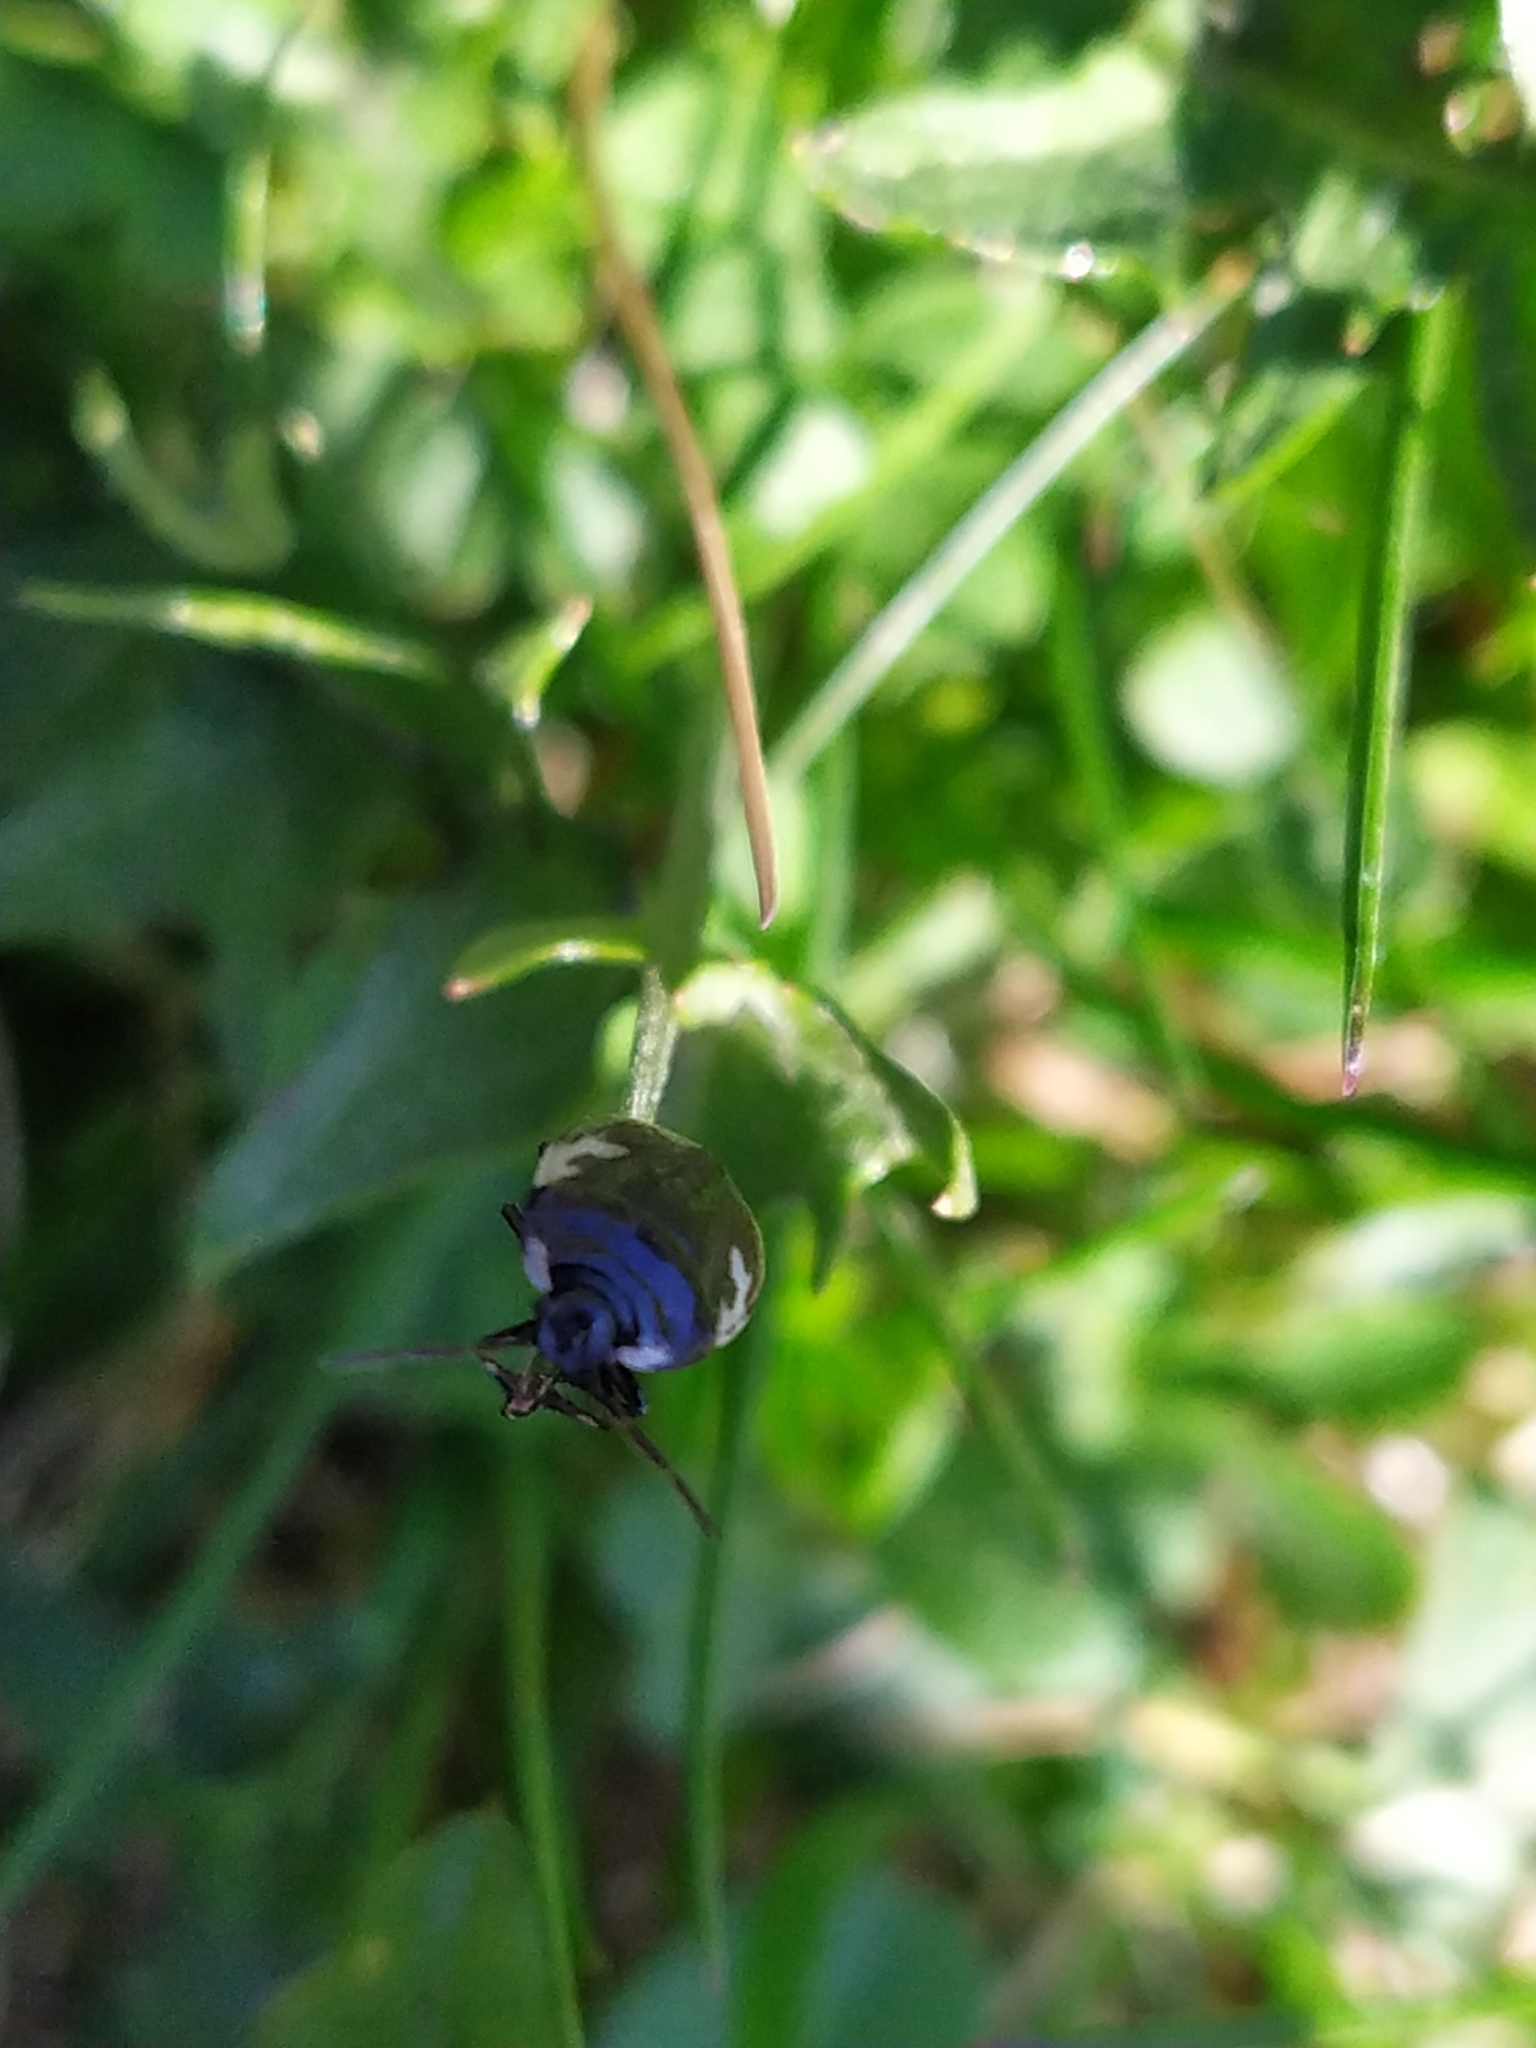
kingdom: Animalia
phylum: Arthropoda
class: Insecta
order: Hemiptera
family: Cydnidae
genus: Tritomegas
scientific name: Tritomegas bicolor
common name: Pied shieldbug
